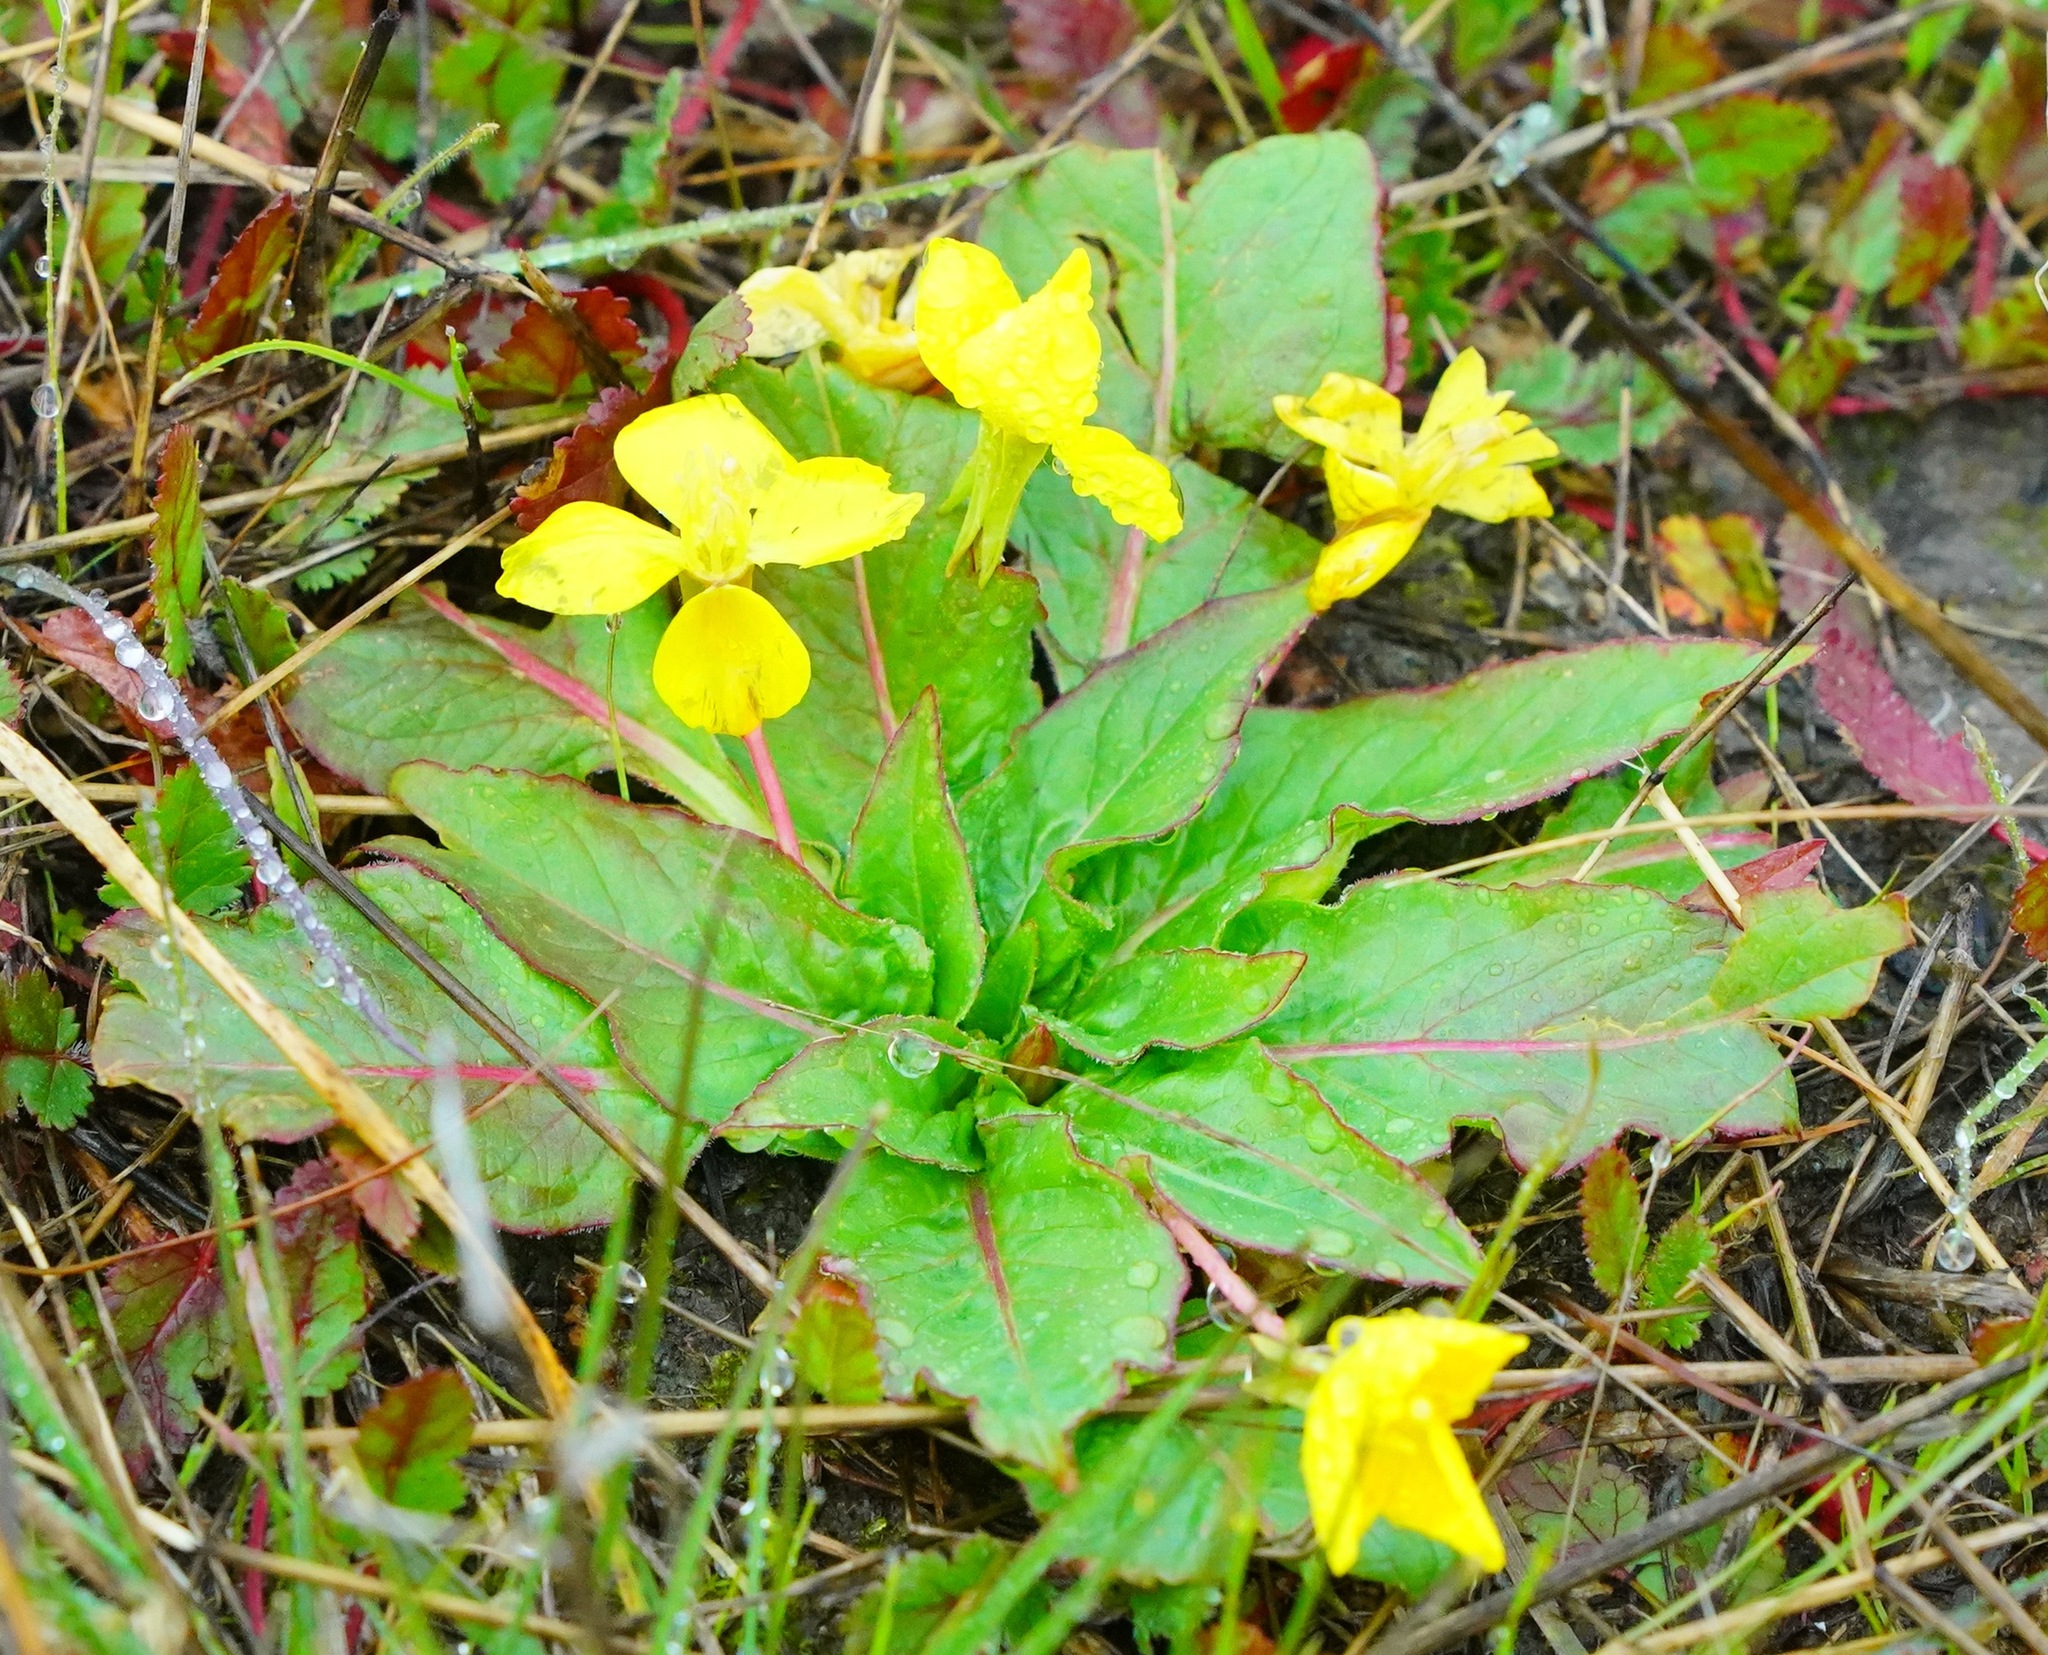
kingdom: Plantae
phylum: Tracheophyta
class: Magnoliopsida
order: Myrtales
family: Onagraceae
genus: Taraxia
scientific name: Taraxia ovata
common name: Goldeneggs
